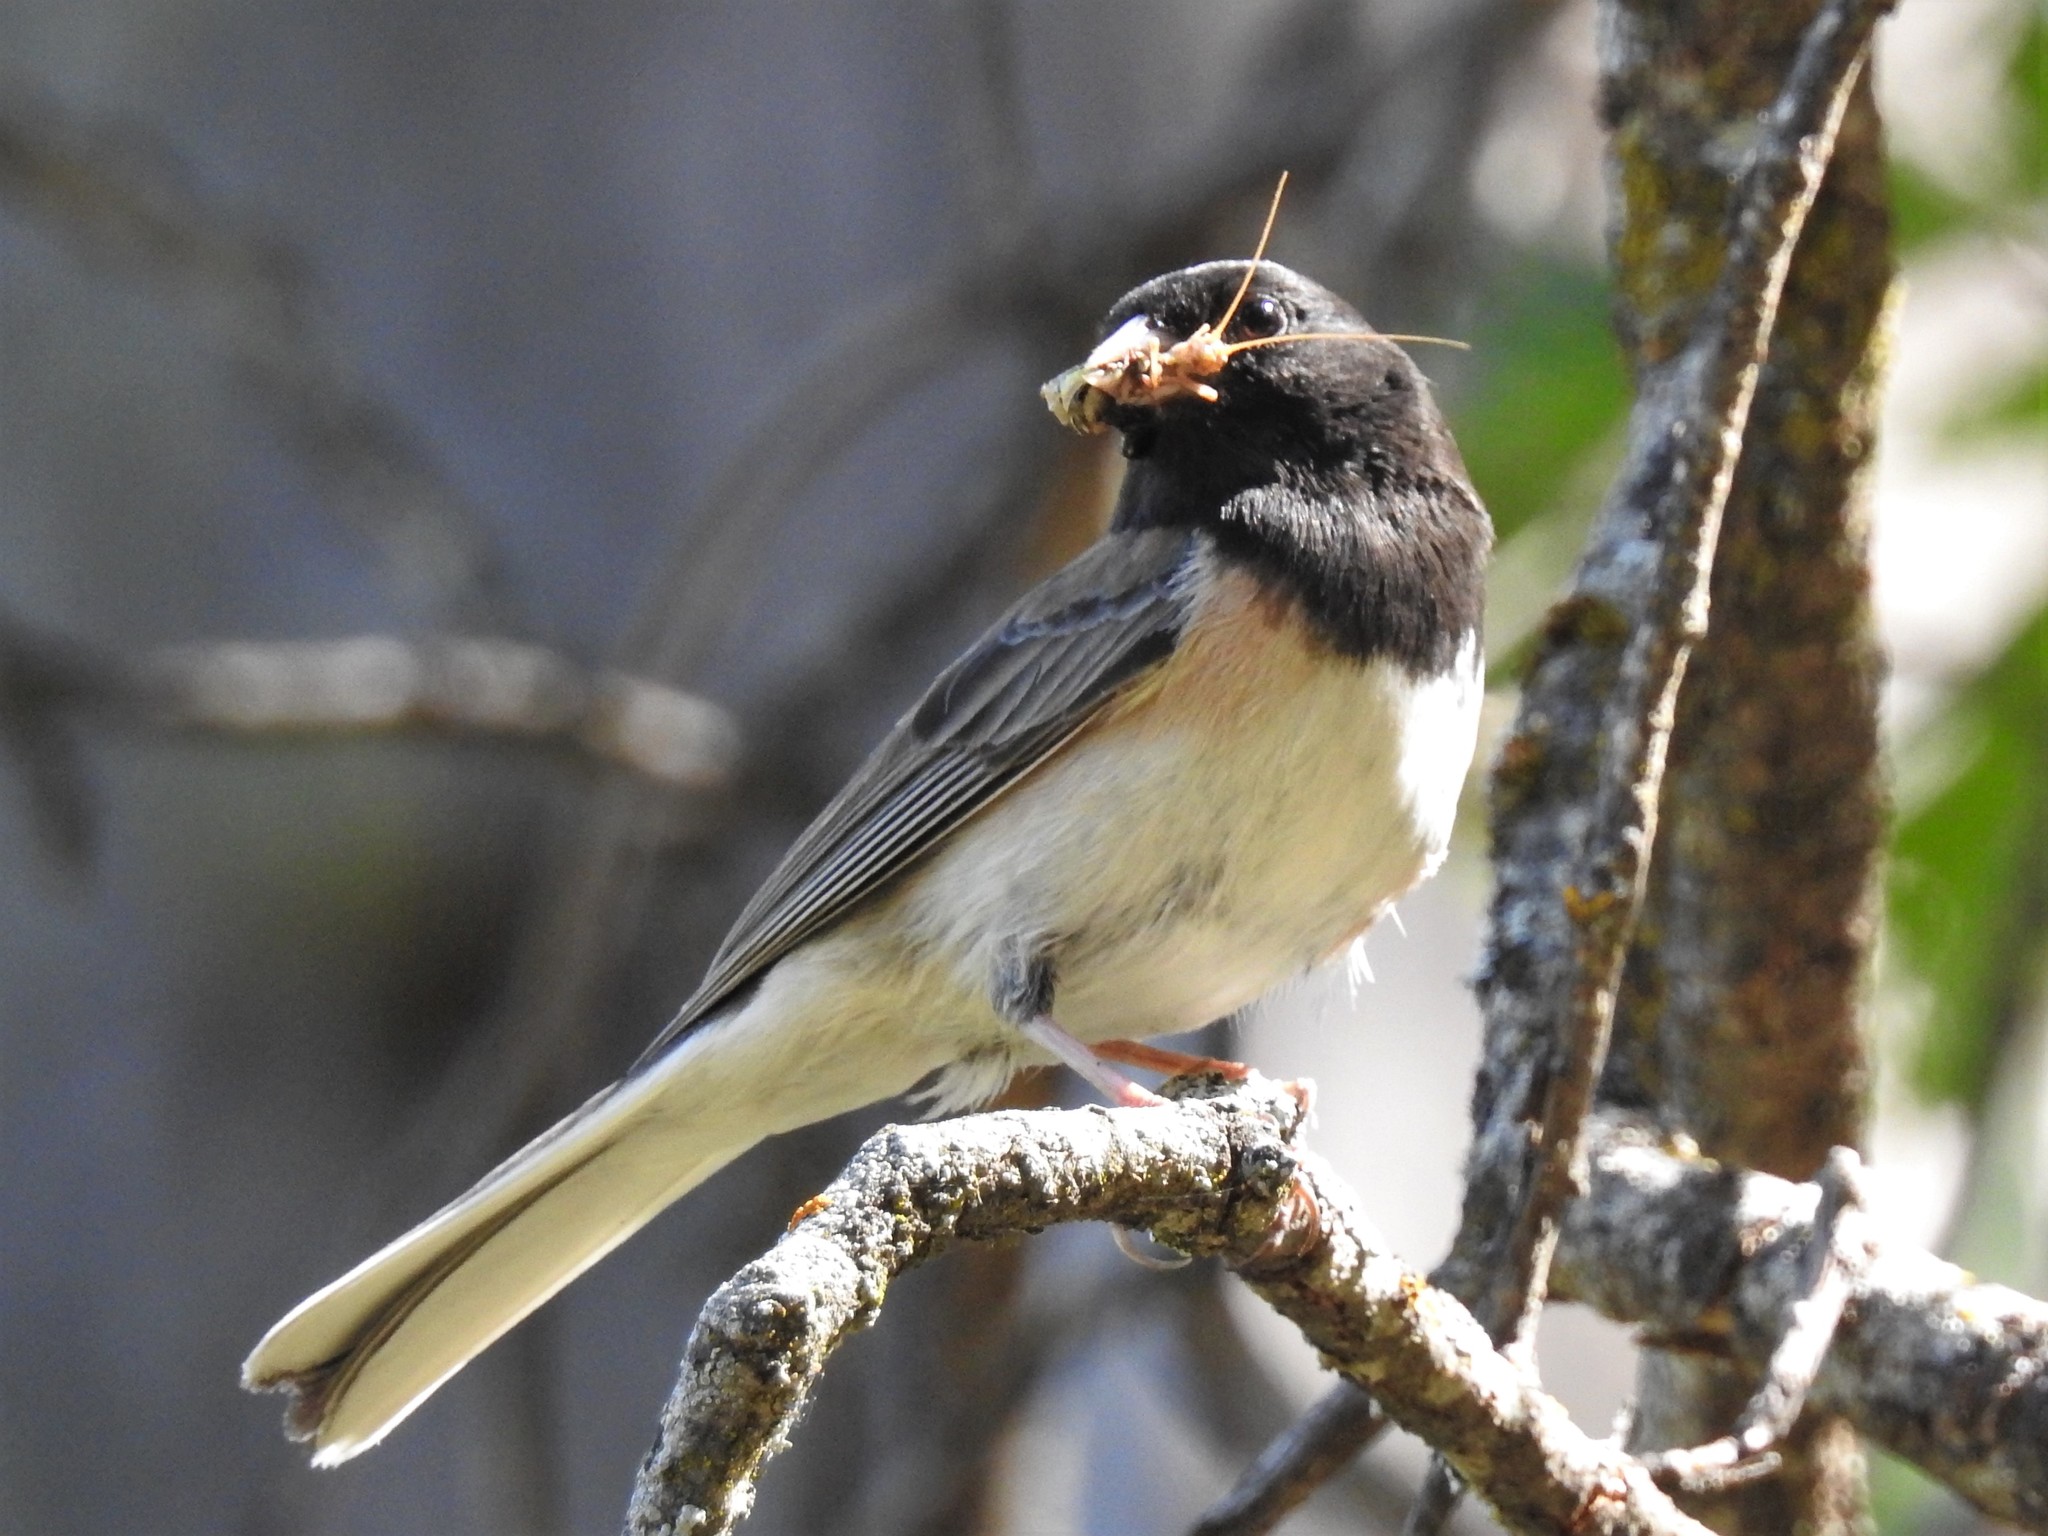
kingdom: Animalia
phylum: Chordata
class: Aves
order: Passeriformes
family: Passerellidae
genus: Junco
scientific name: Junco hyemalis
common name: Dark-eyed junco
